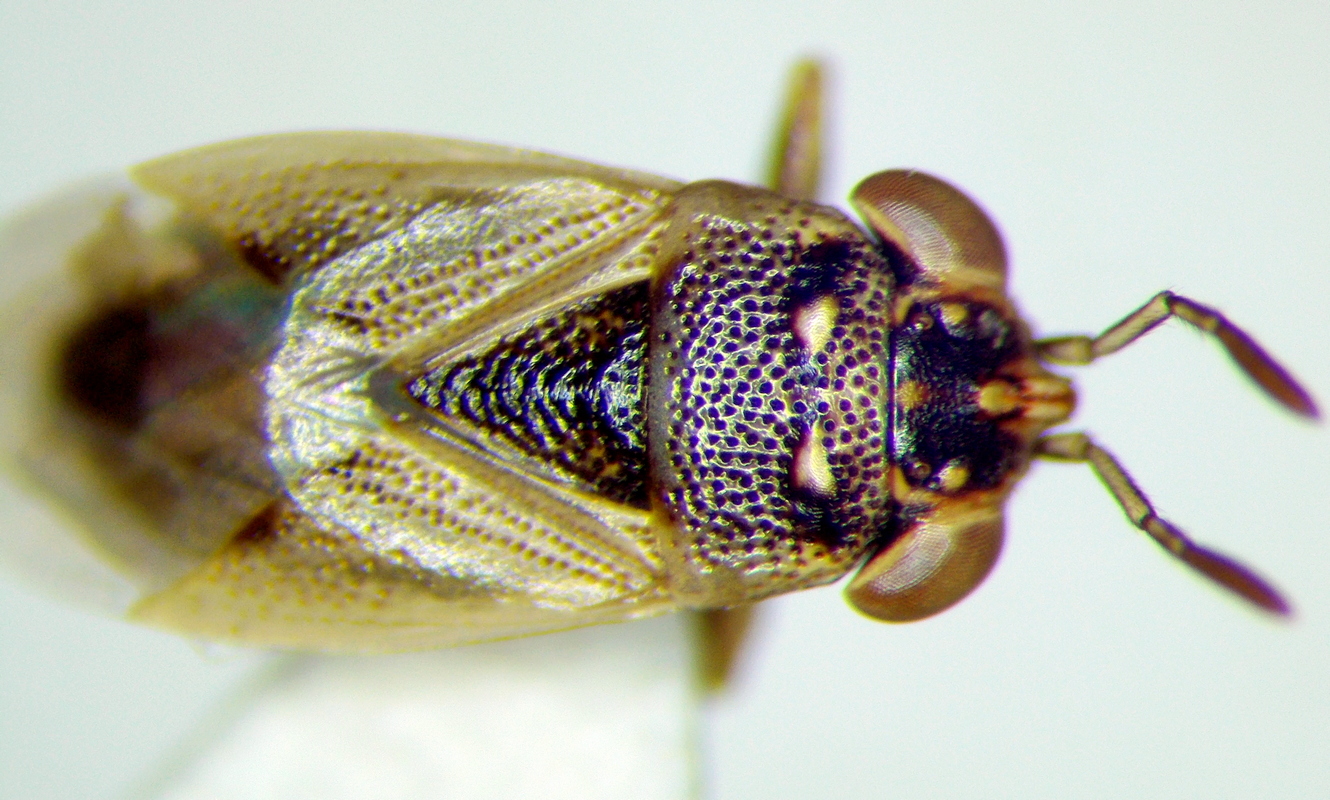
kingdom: Animalia
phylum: Arthropoda
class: Insecta
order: Hemiptera
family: Geocoridae
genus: Geocoris
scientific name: Geocoris pallens
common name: Big-eyed bug
